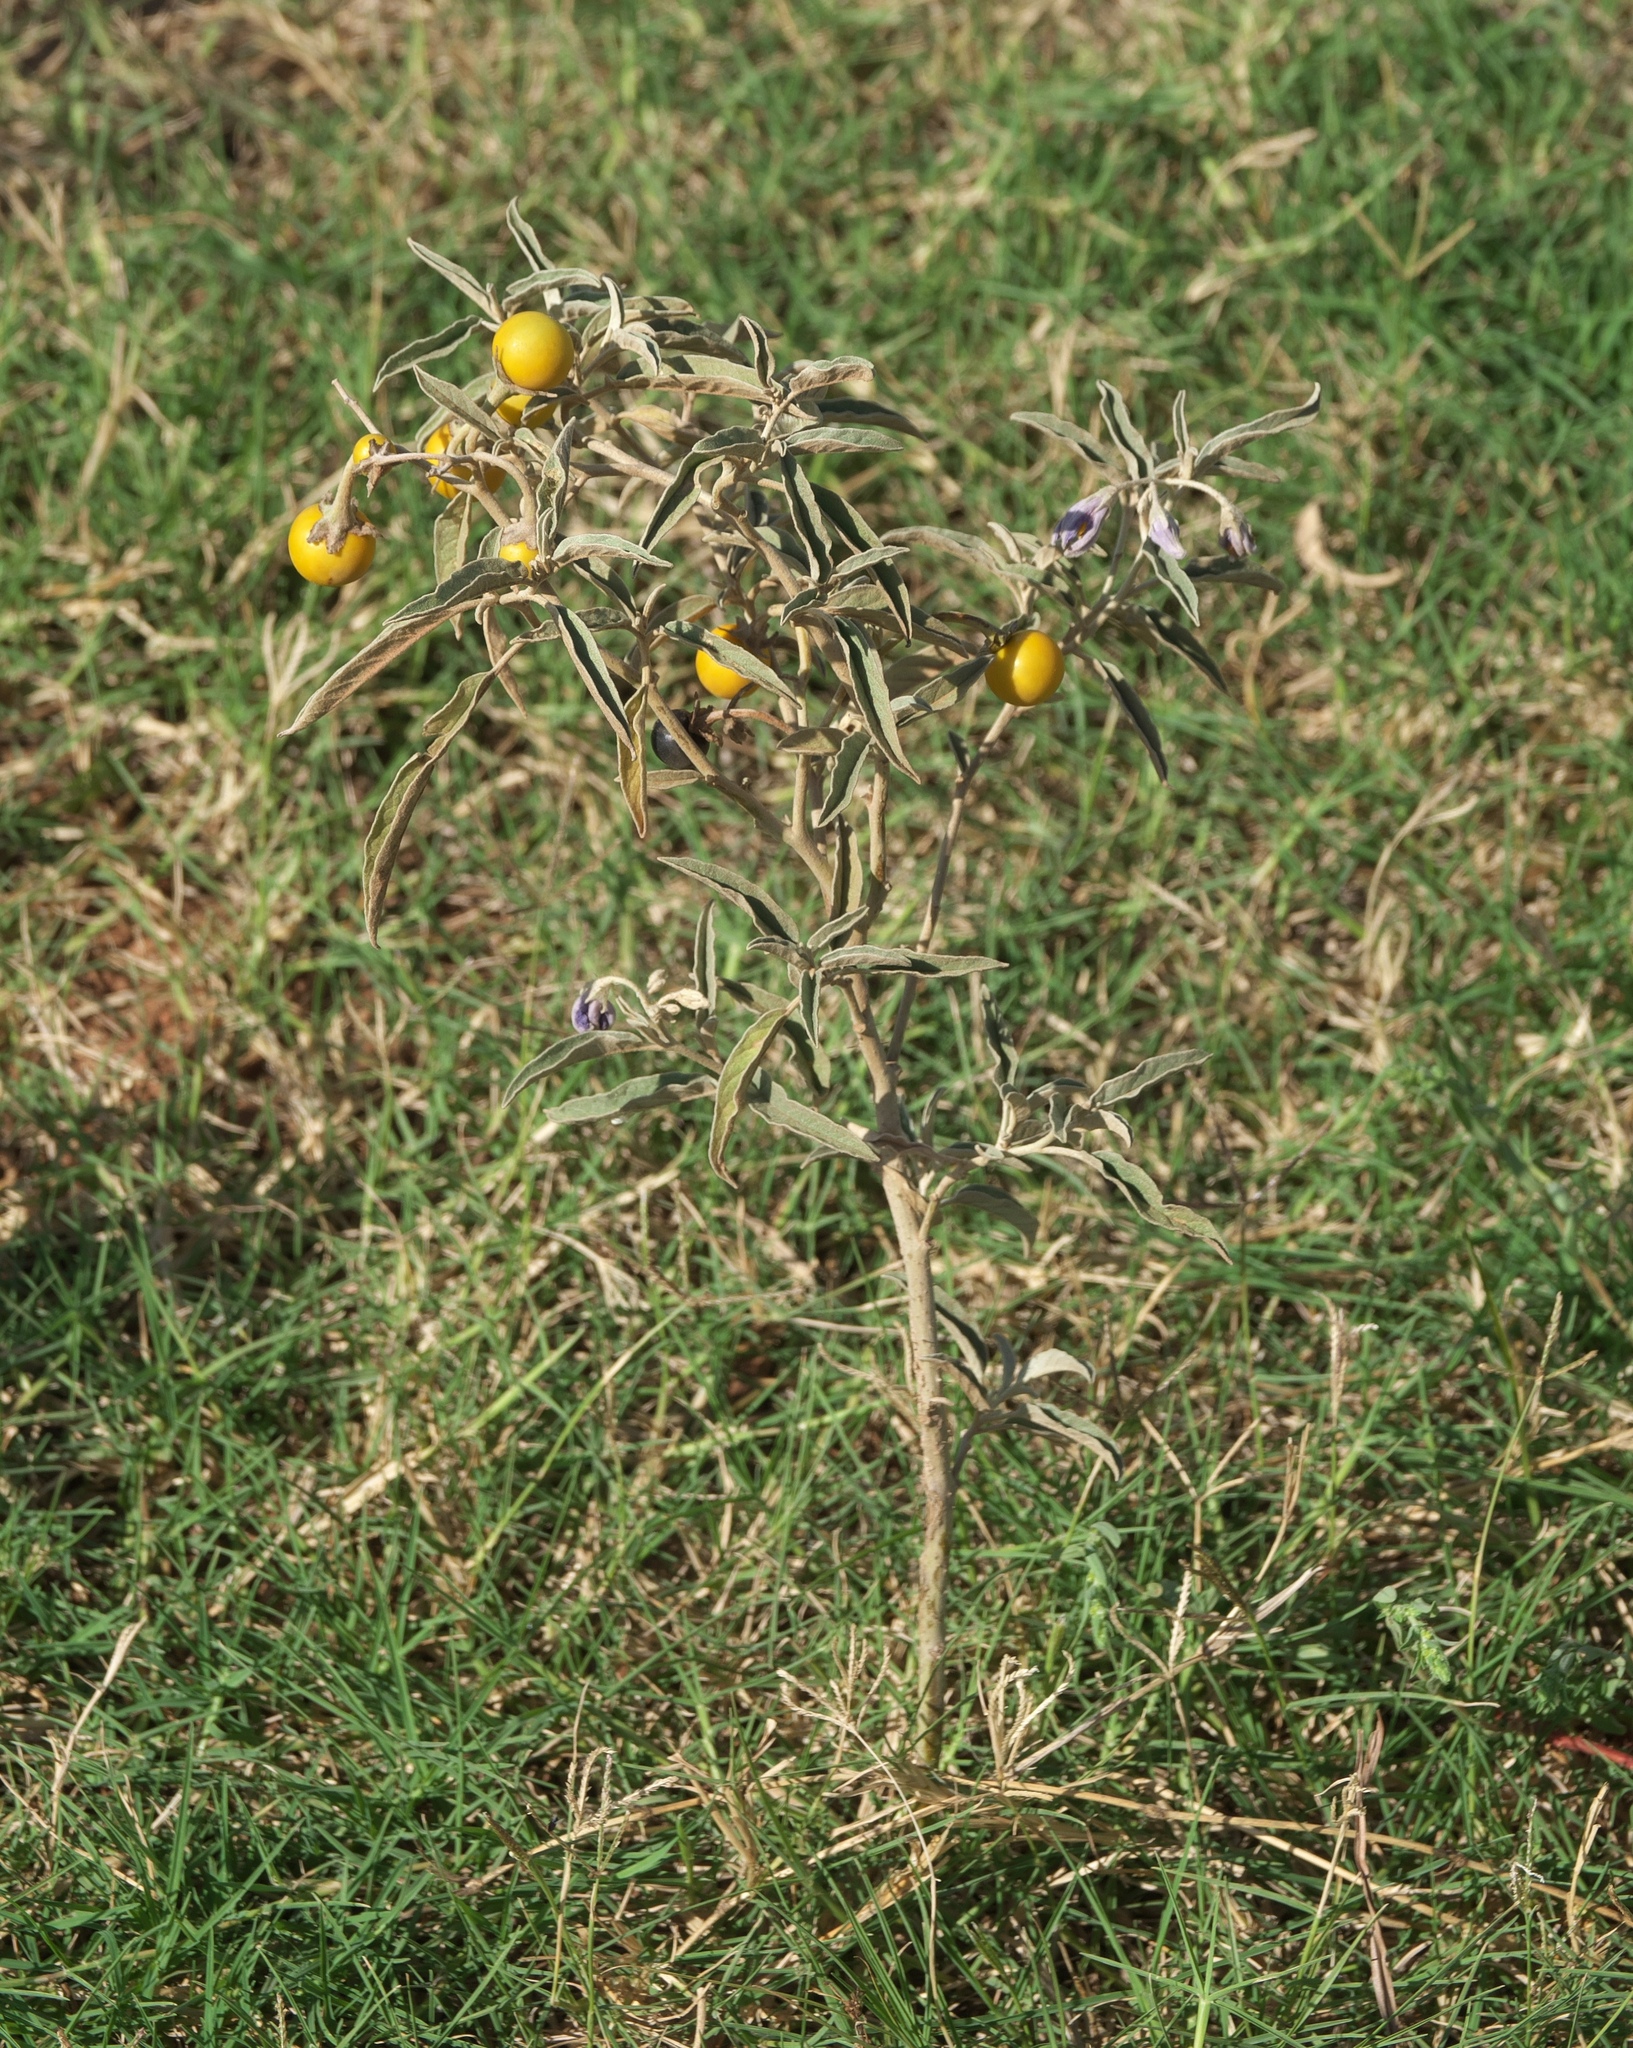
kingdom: Plantae
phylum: Tracheophyta
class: Magnoliopsida
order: Solanales
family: Solanaceae
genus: Solanum
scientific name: Solanum elaeagnifolium
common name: Silverleaf nightshade
